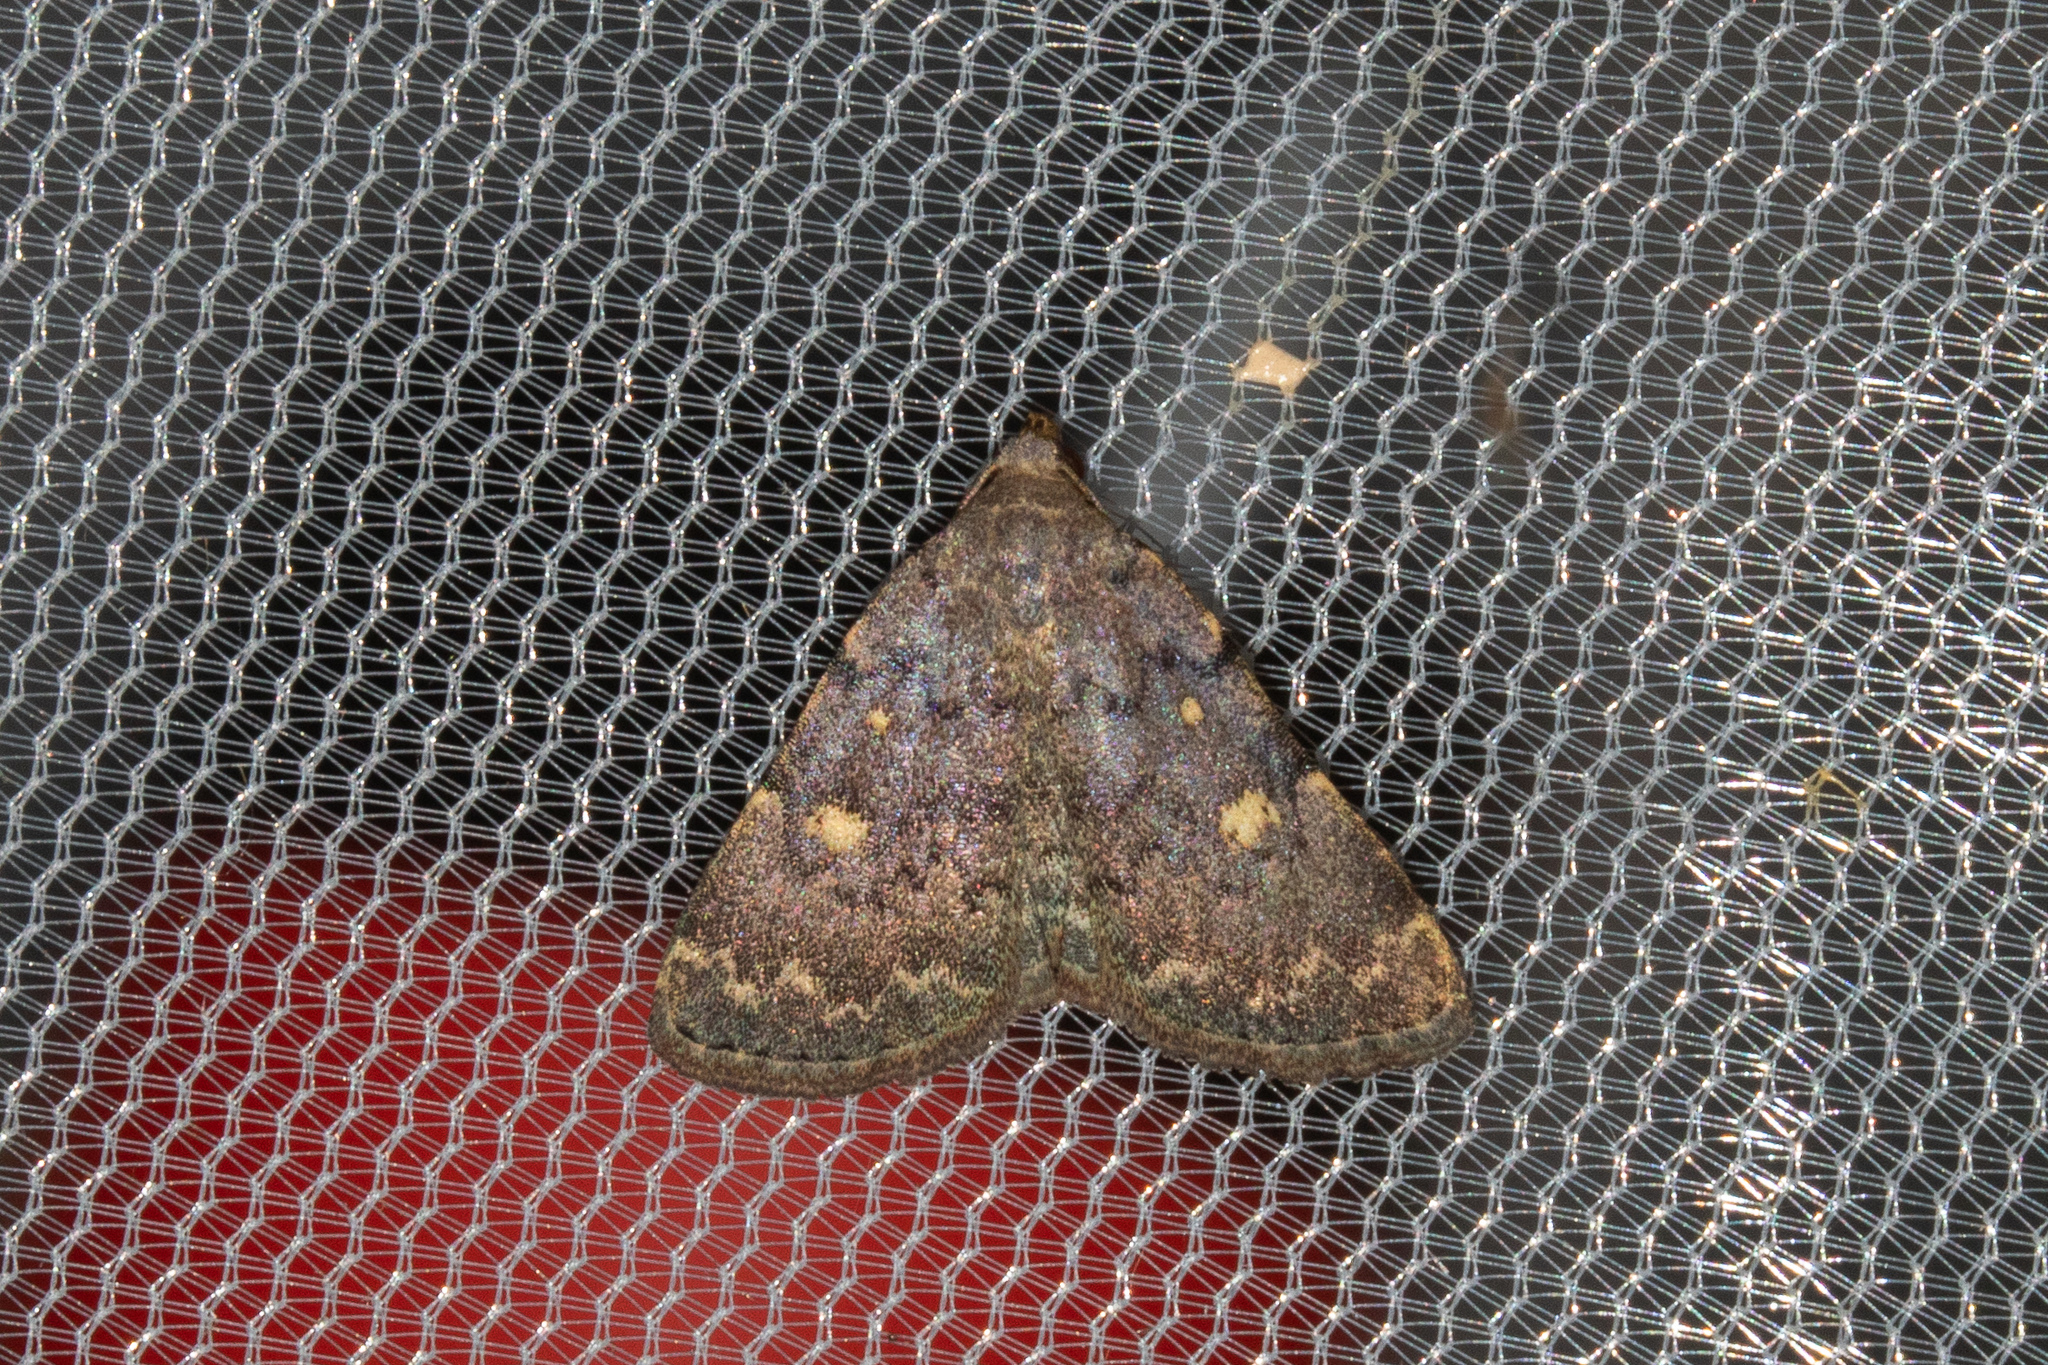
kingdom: Animalia
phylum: Arthropoda
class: Insecta
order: Lepidoptera
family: Erebidae
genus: Idia
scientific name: Idia aemula
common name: Common idia moth
